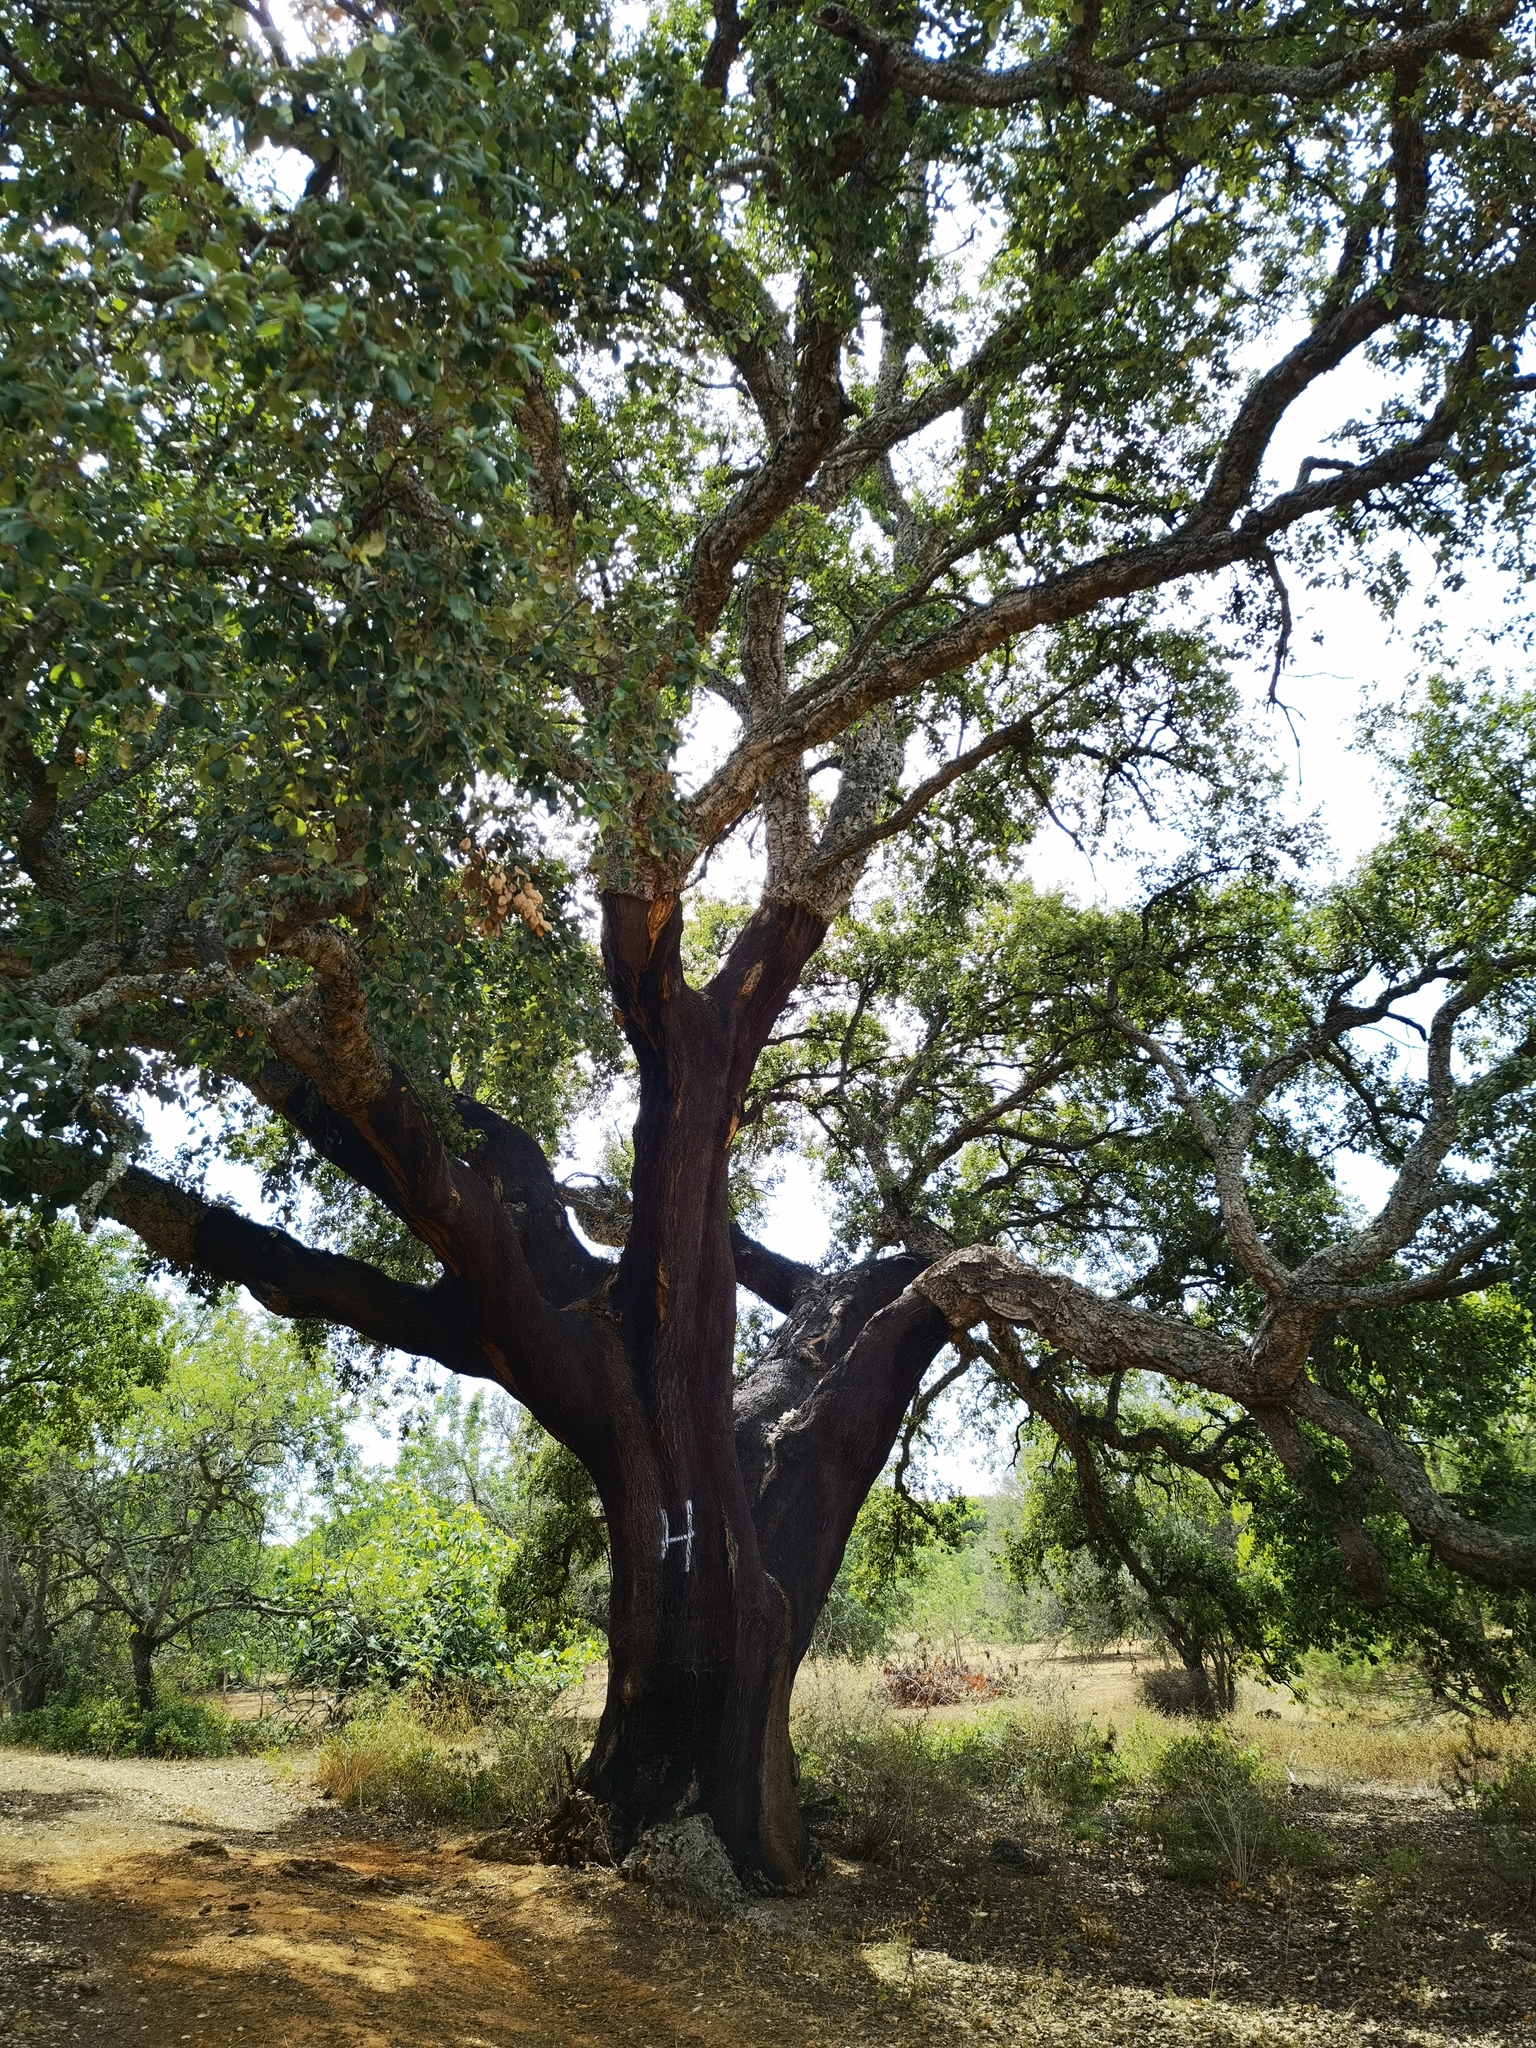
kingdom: Plantae
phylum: Tracheophyta
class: Magnoliopsida
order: Fagales
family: Fagaceae
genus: Quercus
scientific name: Quercus suber
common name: Cork oak
